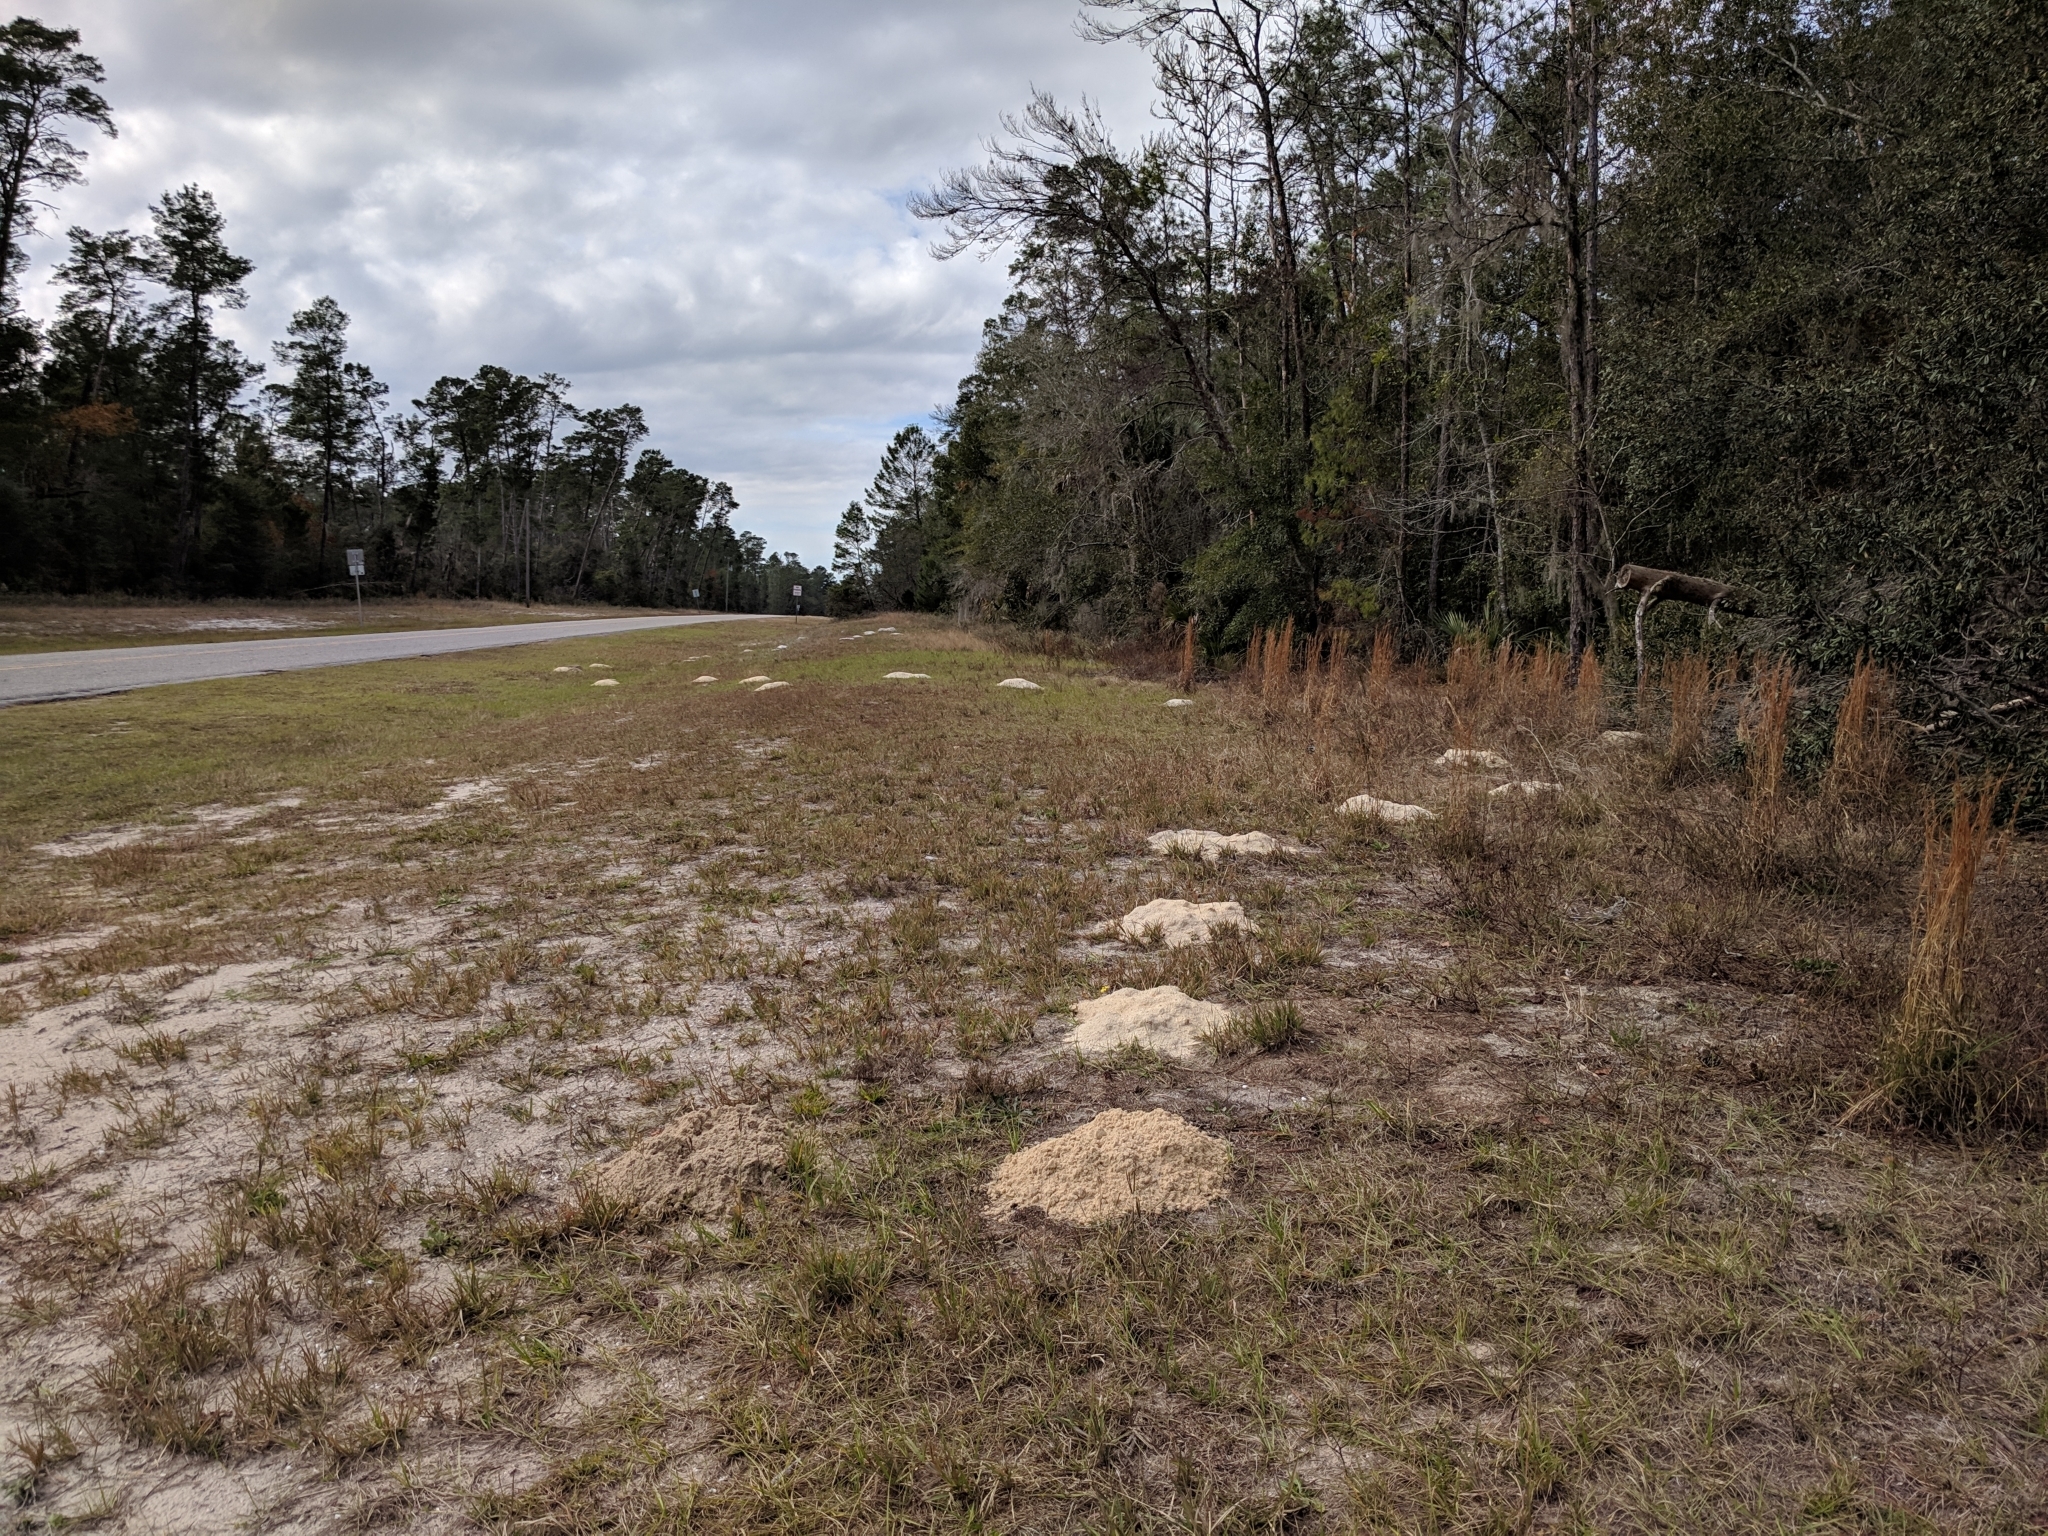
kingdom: Animalia
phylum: Chordata
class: Mammalia
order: Rodentia
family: Geomyidae
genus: Geomys
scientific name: Geomys pinetis
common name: Southeastern pocket gopher
